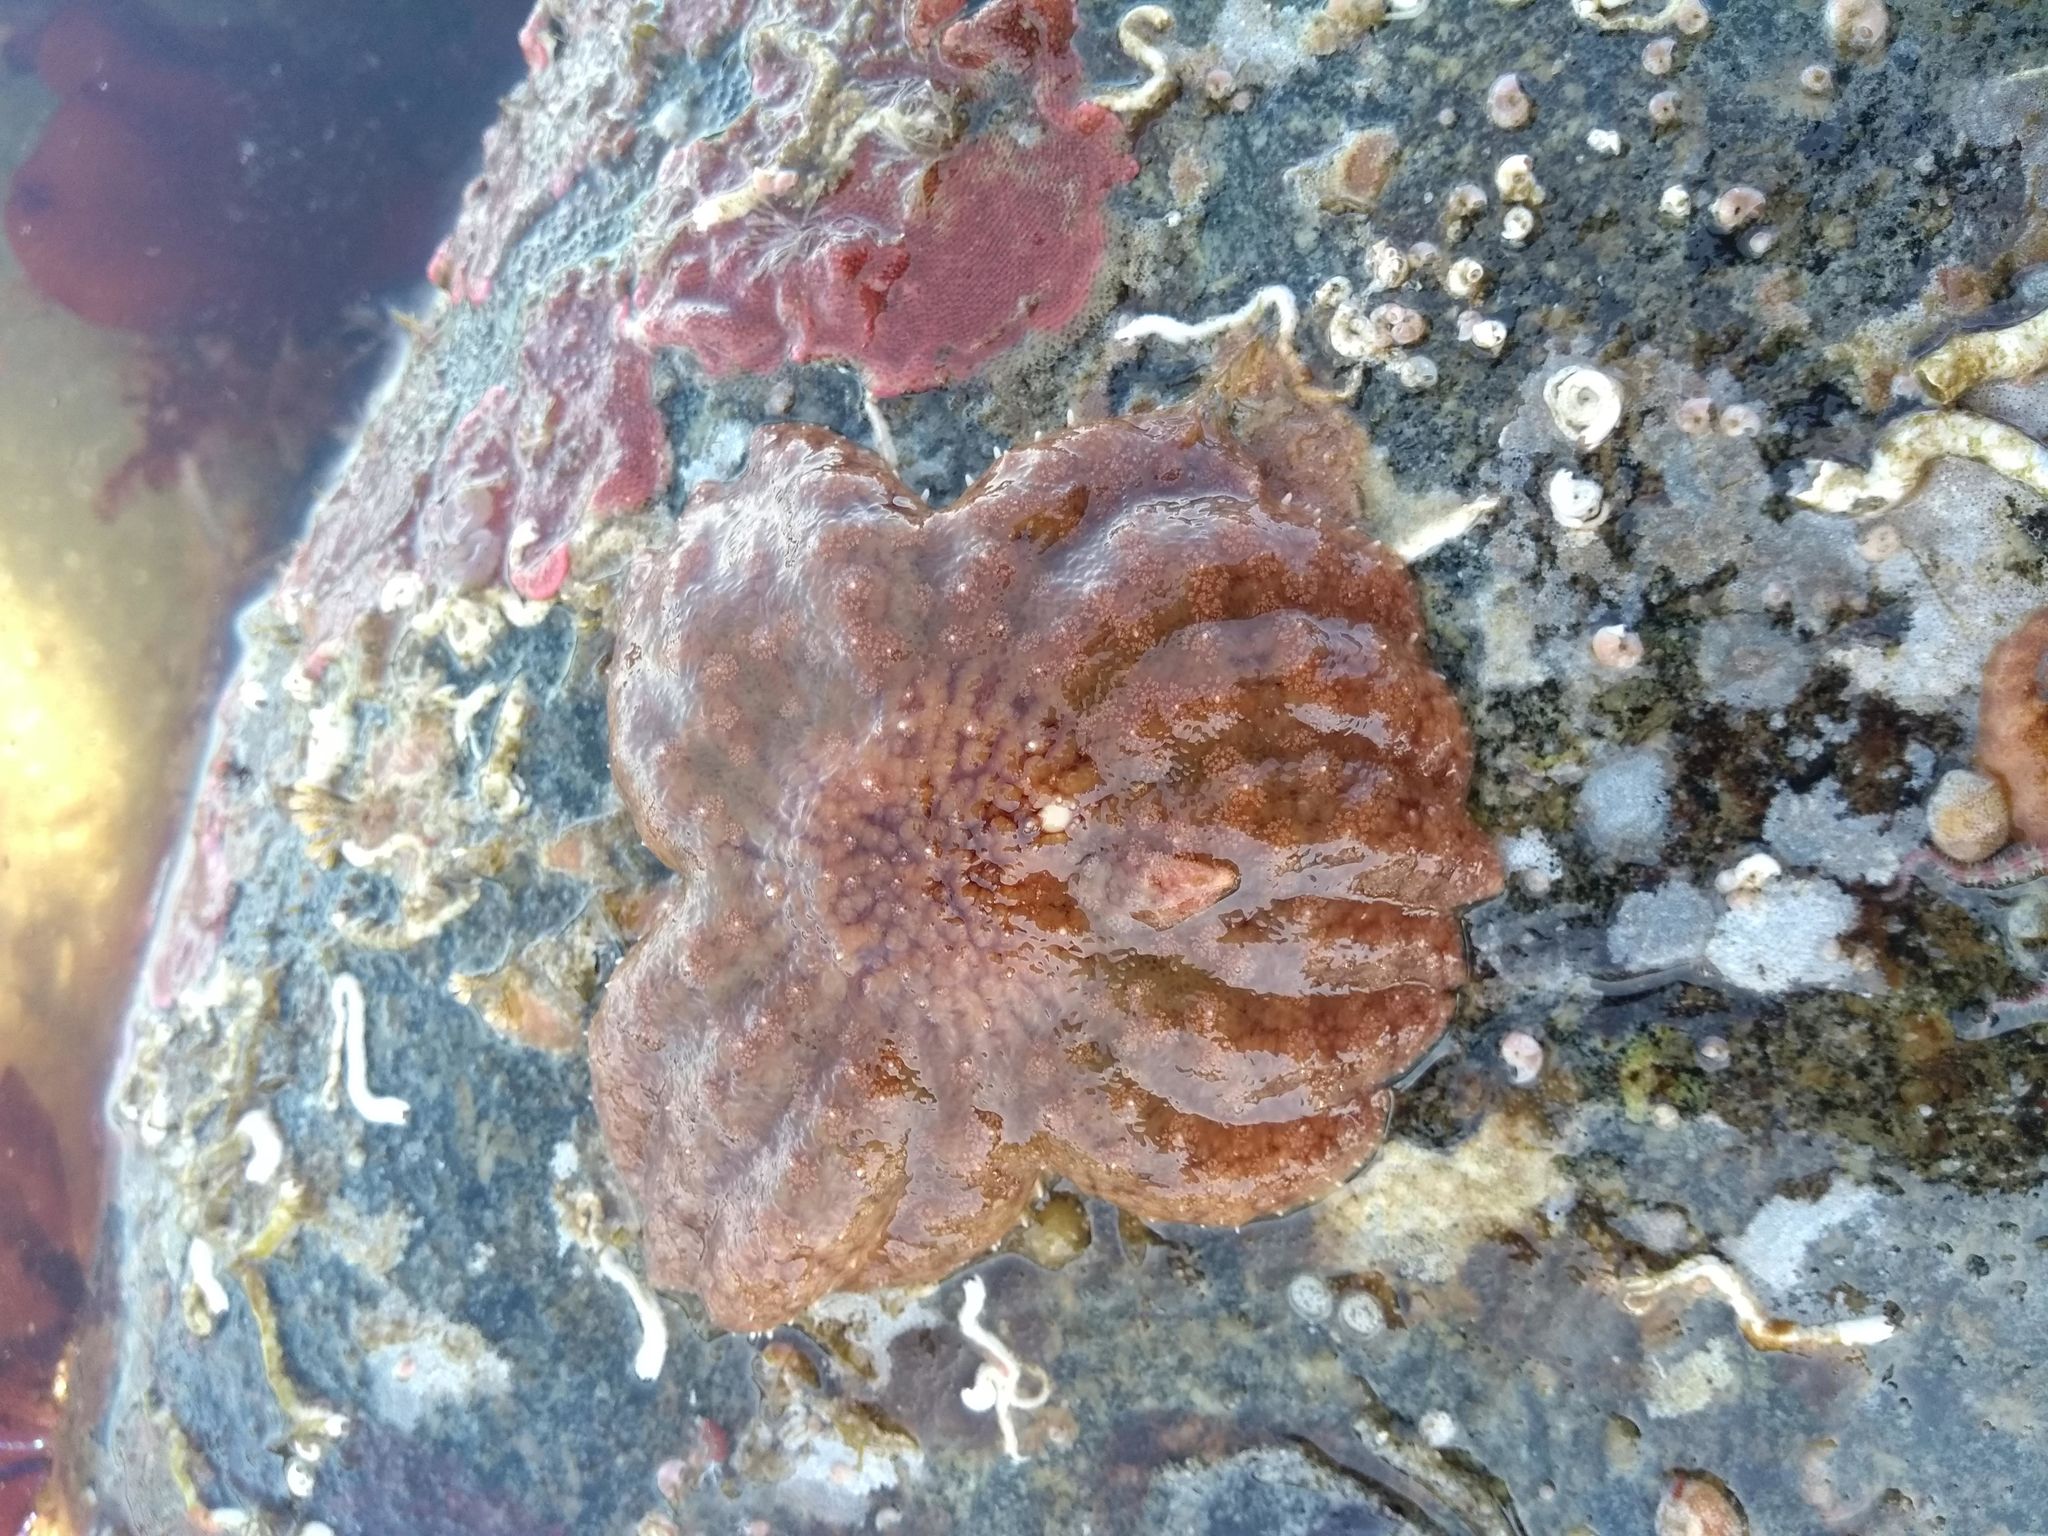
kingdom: Animalia
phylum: Echinodermata
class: Asteroidea
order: Forcipulatida
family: Asteriidae
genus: Pycnopodia
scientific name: Pycnopodia helianthoides
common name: Rag mop
